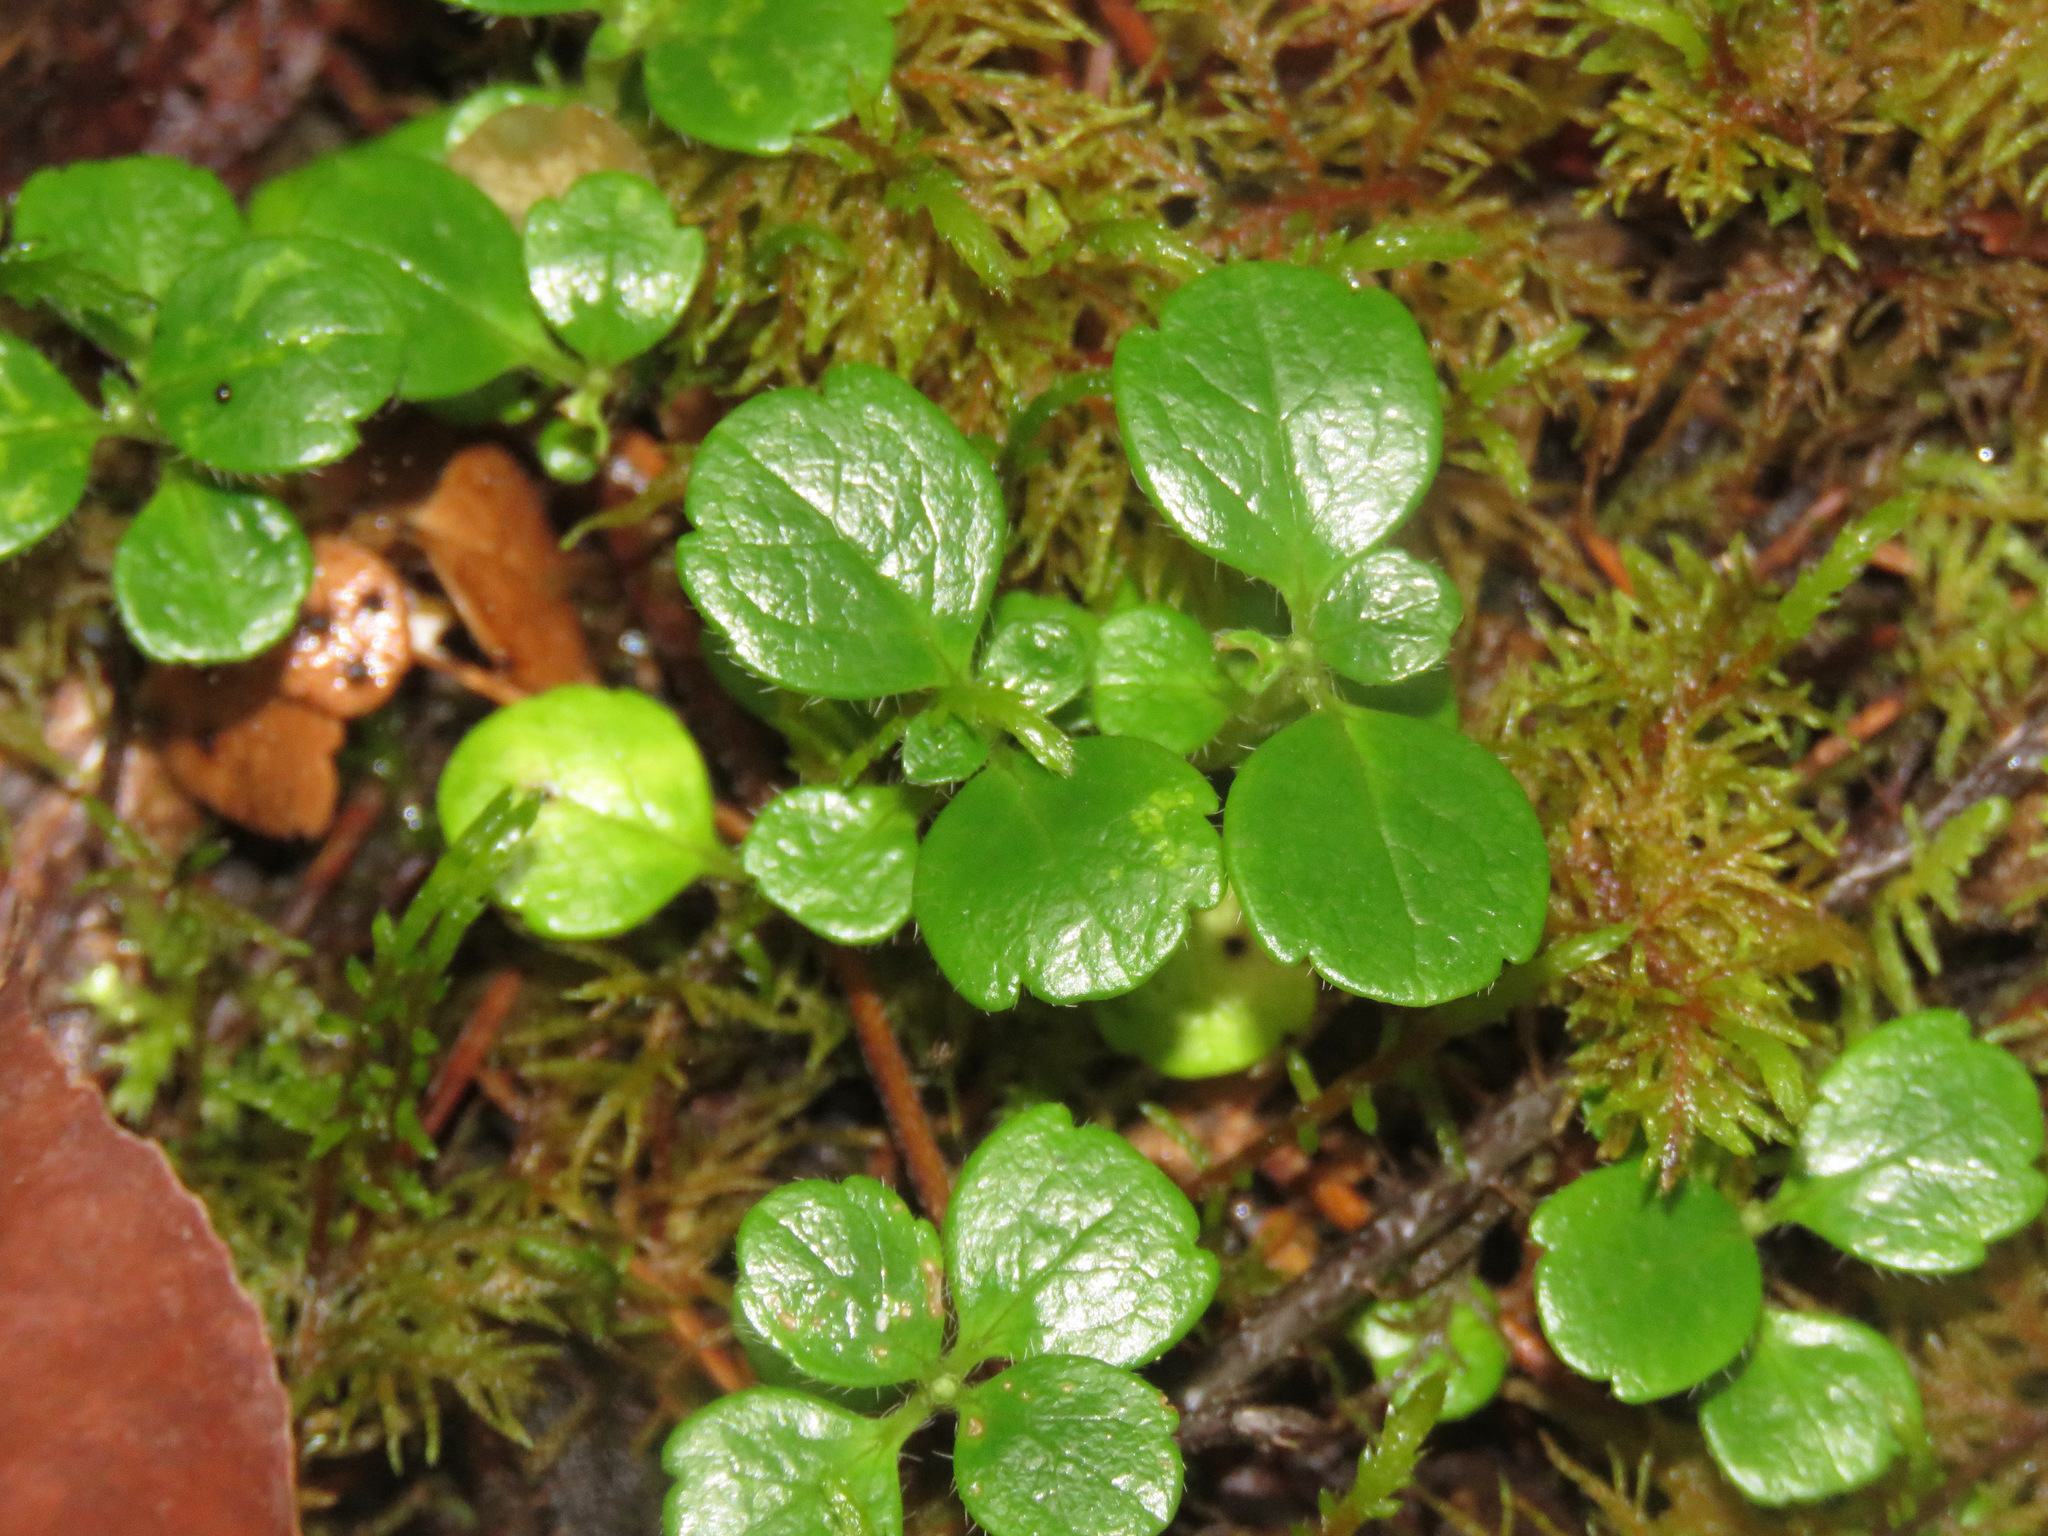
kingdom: Plantae
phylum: Tracheophyta
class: Magnoliopsida
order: Dipsacales
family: Caprifoliaceae
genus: Linnaea
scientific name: Linnaea borealis
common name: Twinflower
